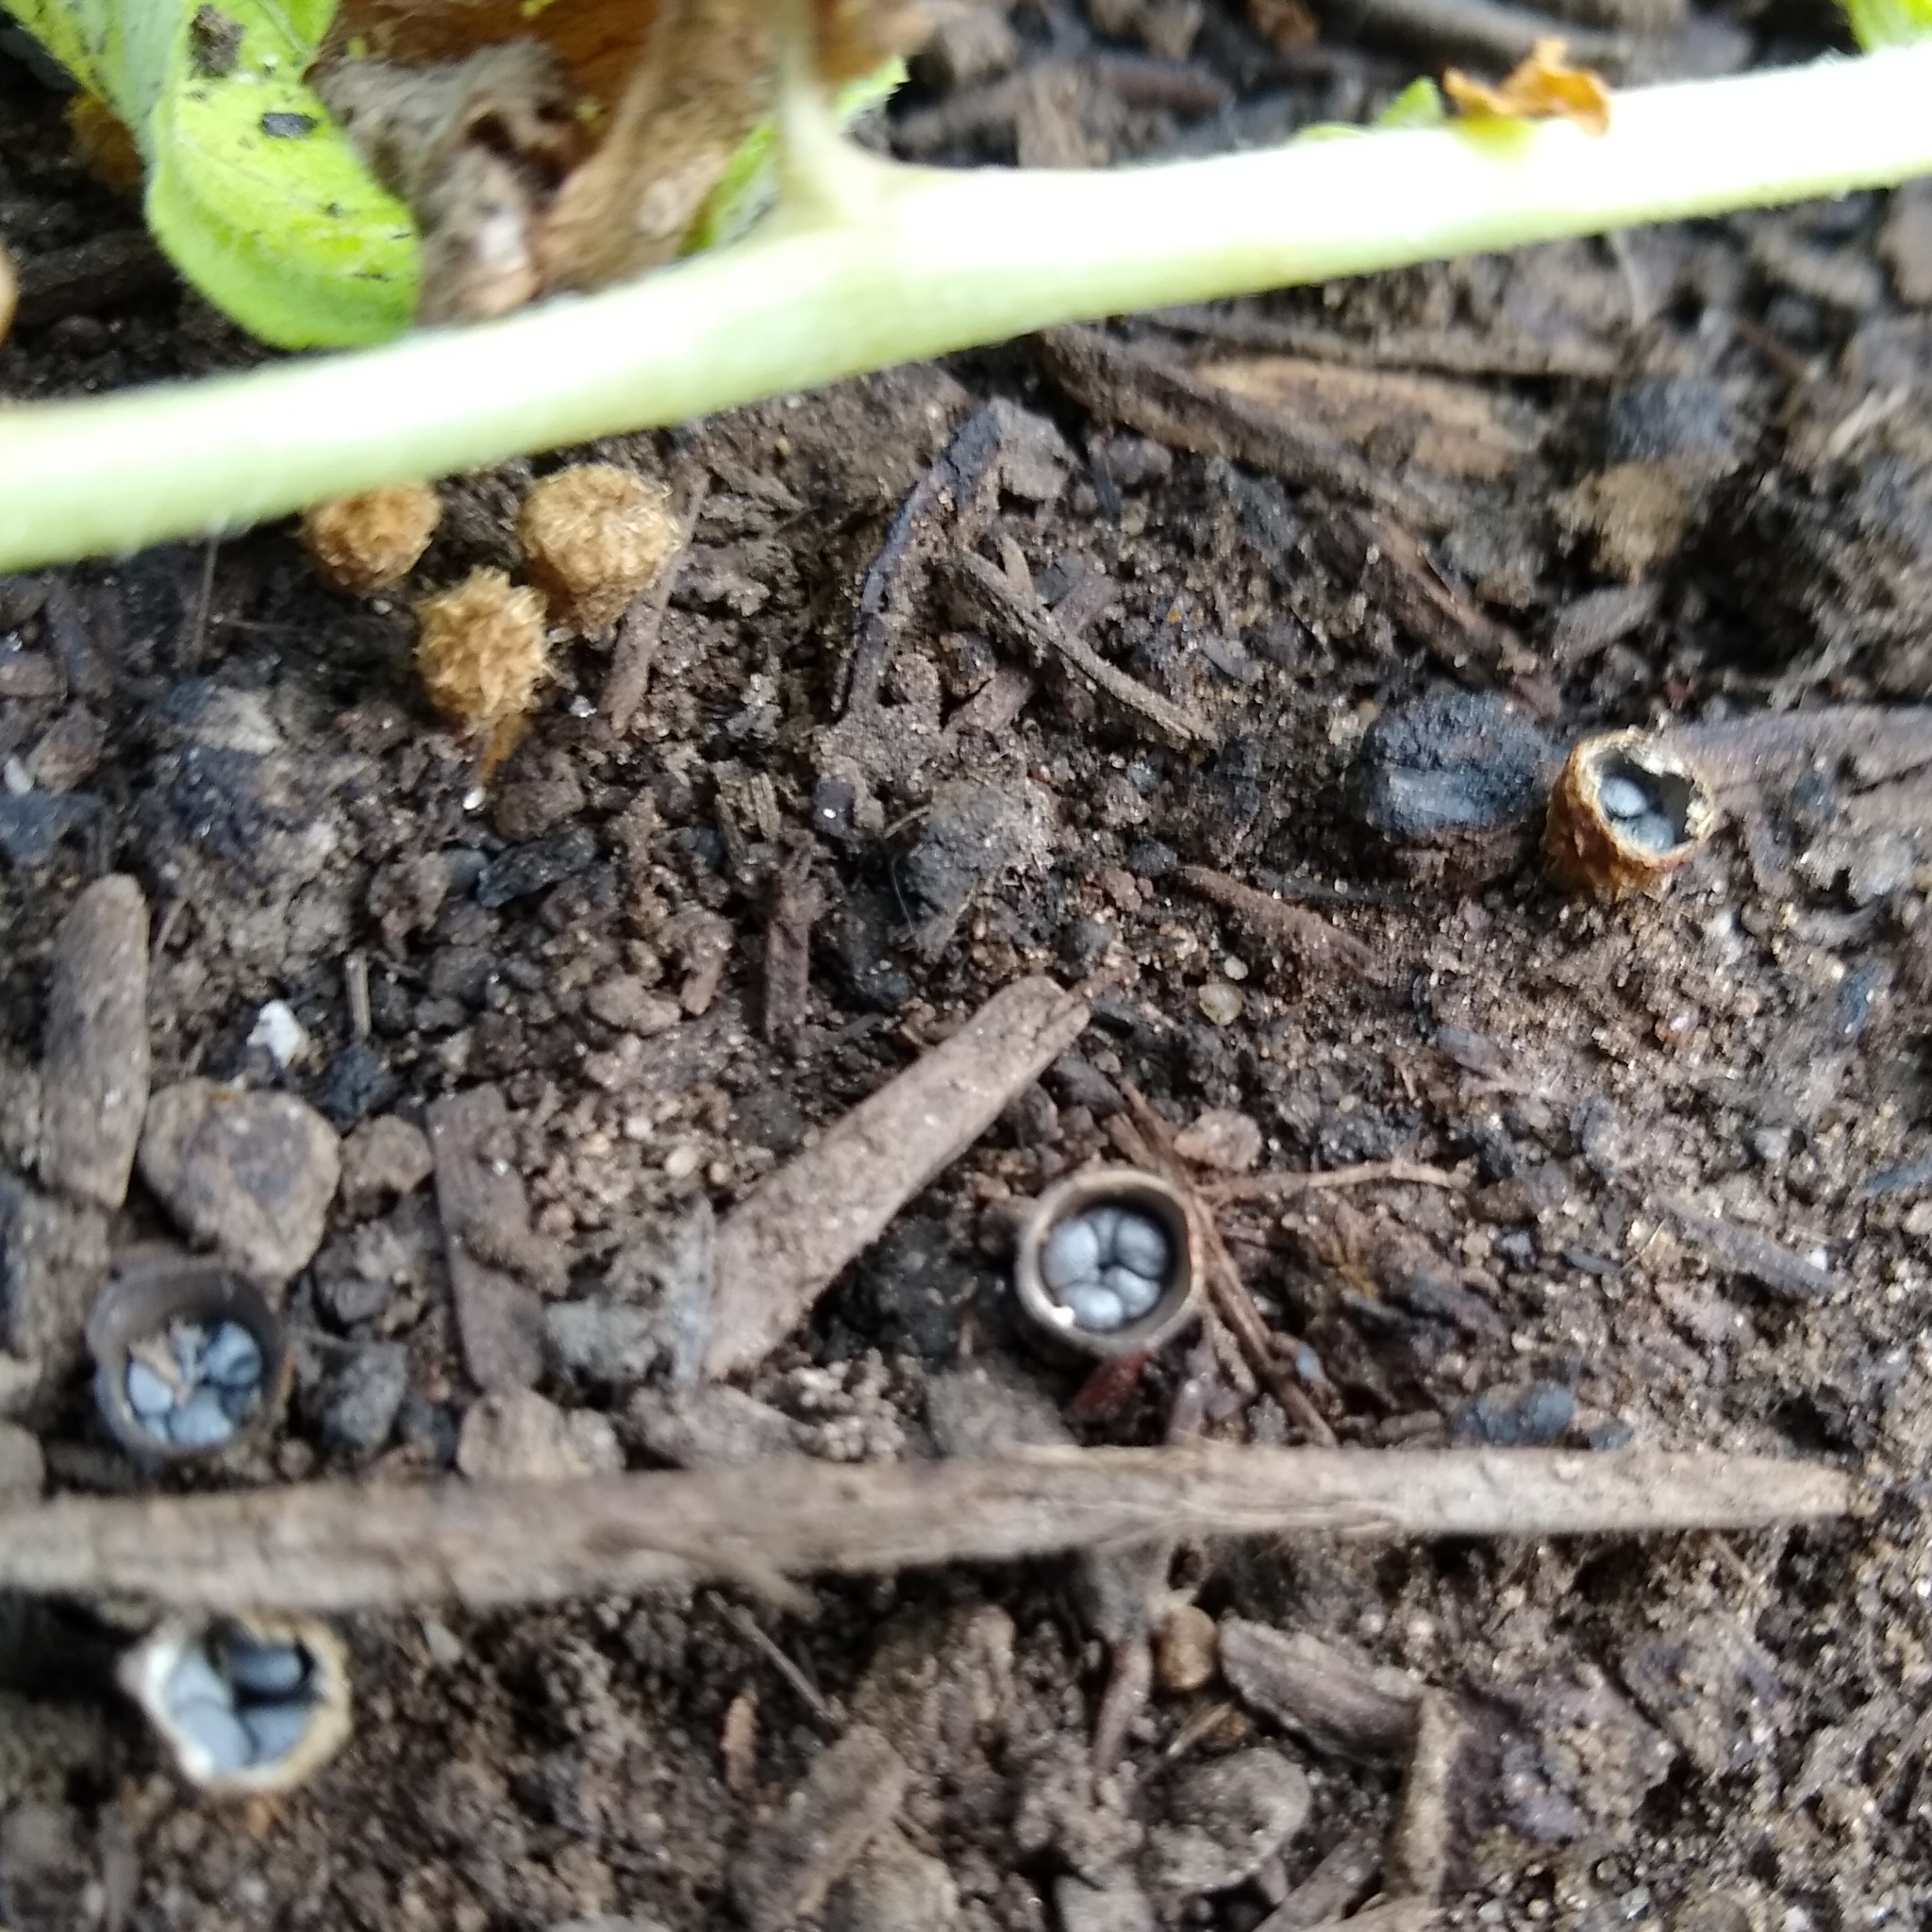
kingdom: Fungi
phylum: Basidiomycota
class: Agaricomycetes
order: Agaricales
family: Agaricaceae
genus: Cyathus
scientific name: Cyathus stercoreus
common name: Dung bird's nest
